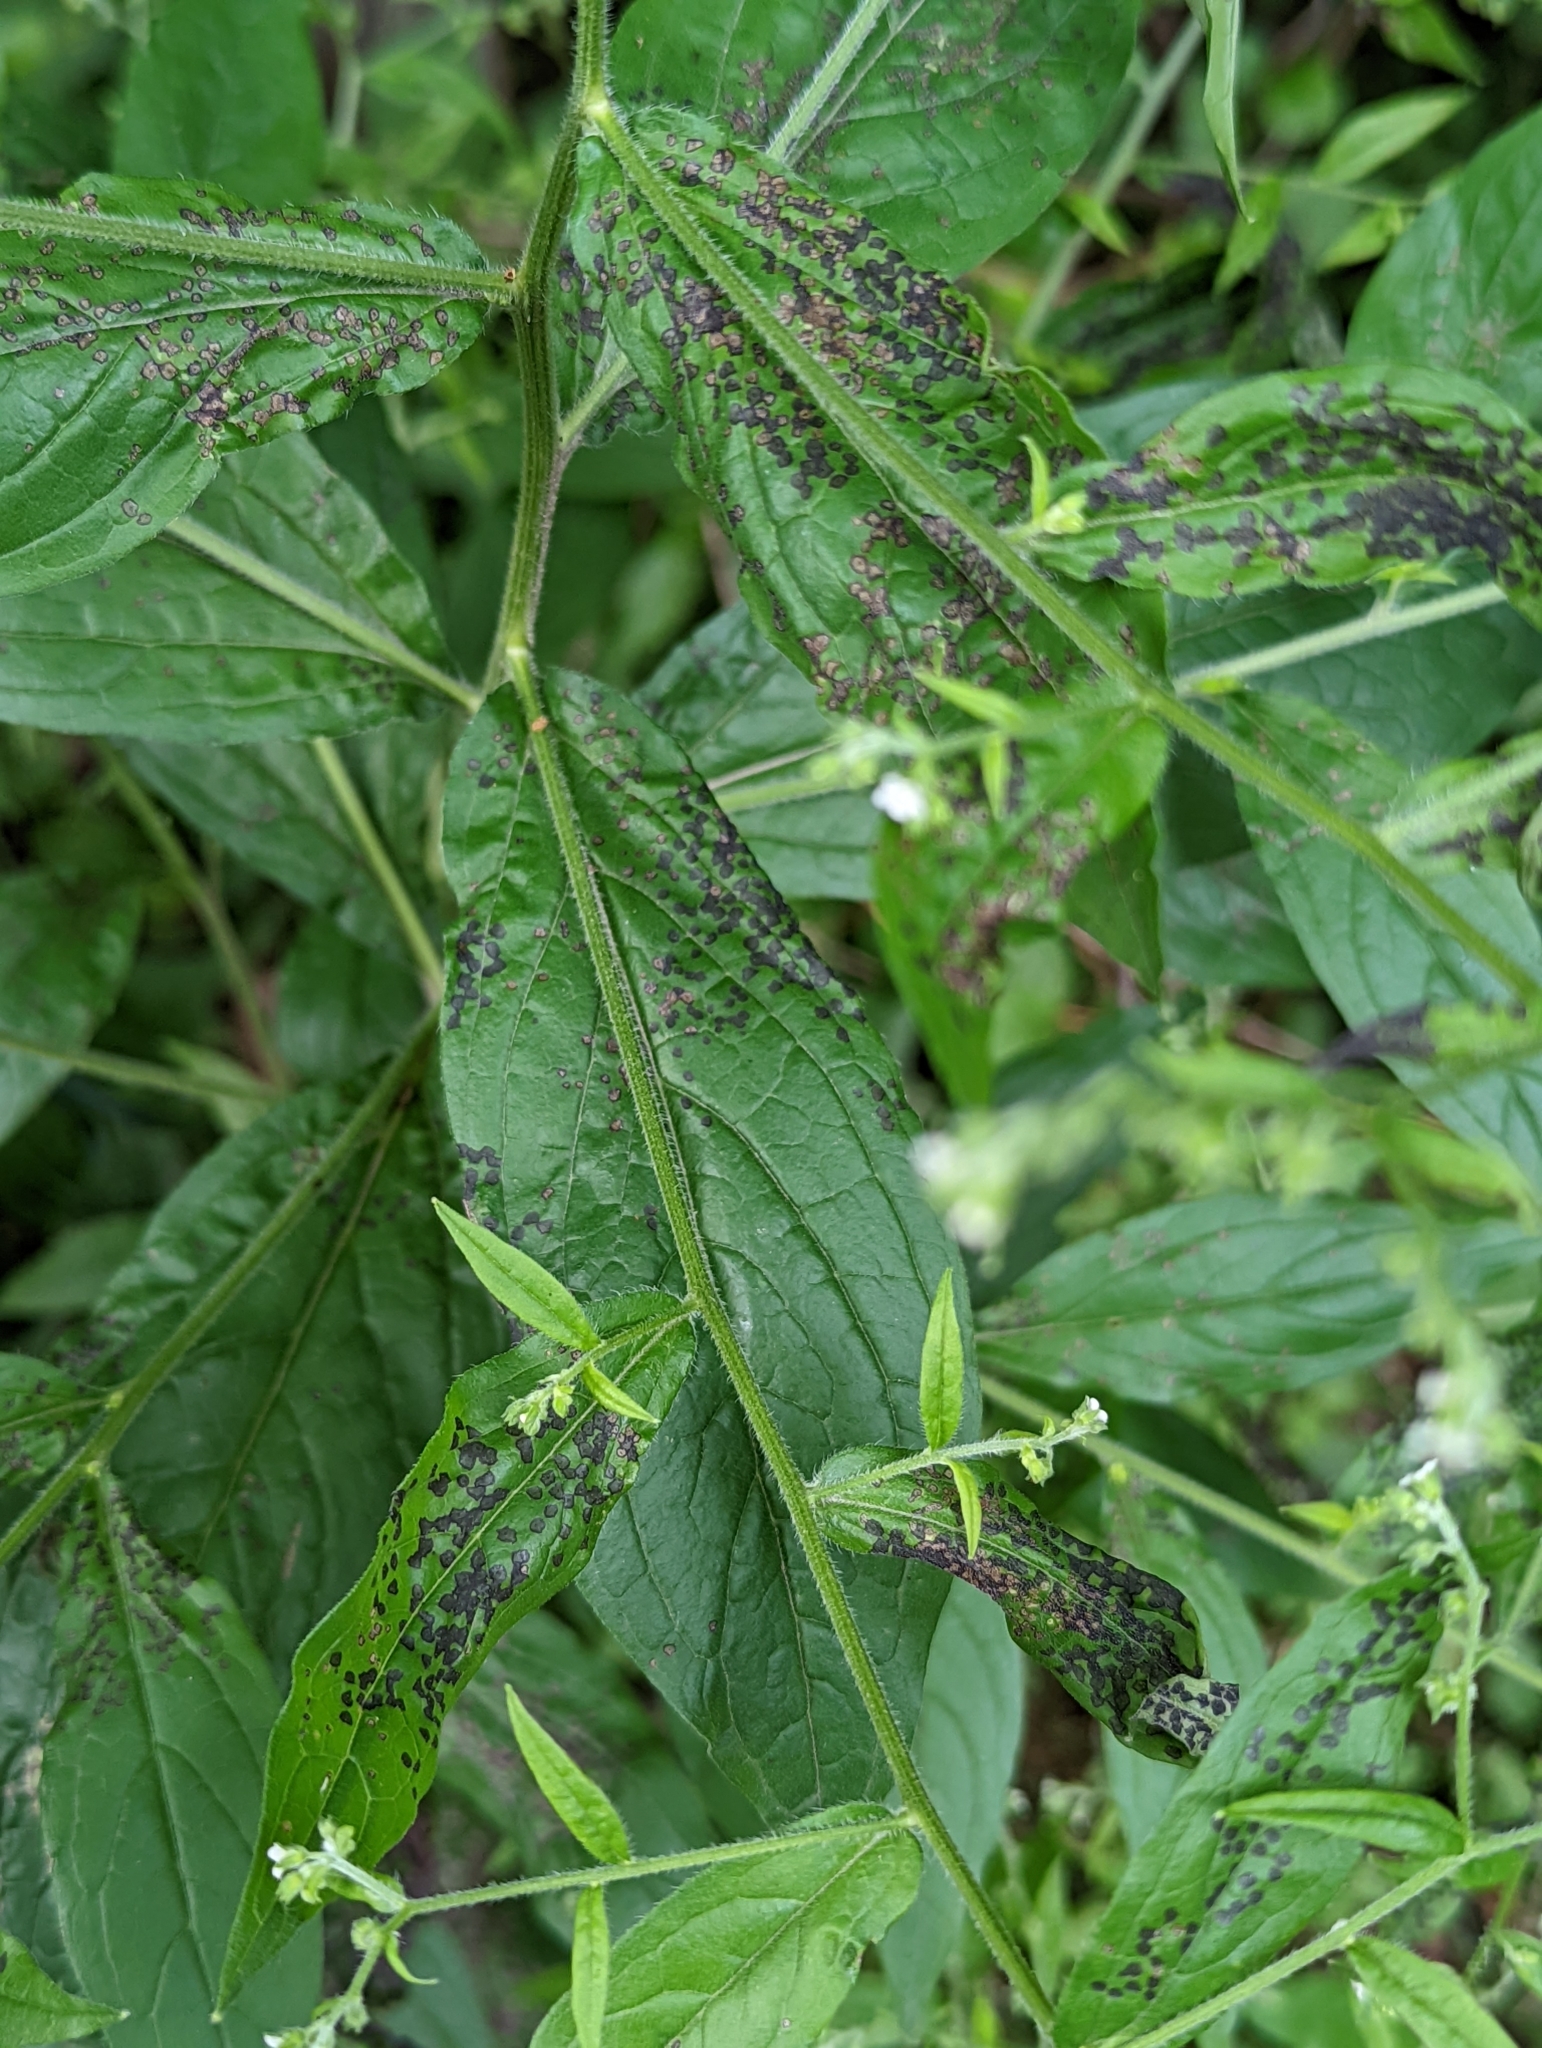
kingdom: Plantae
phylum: Tracheophyta
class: Magnoliopsida
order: Boraginales
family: Boraginaceae
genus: Hackelia
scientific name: Hackelia virginiana
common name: Beggar's-lice
